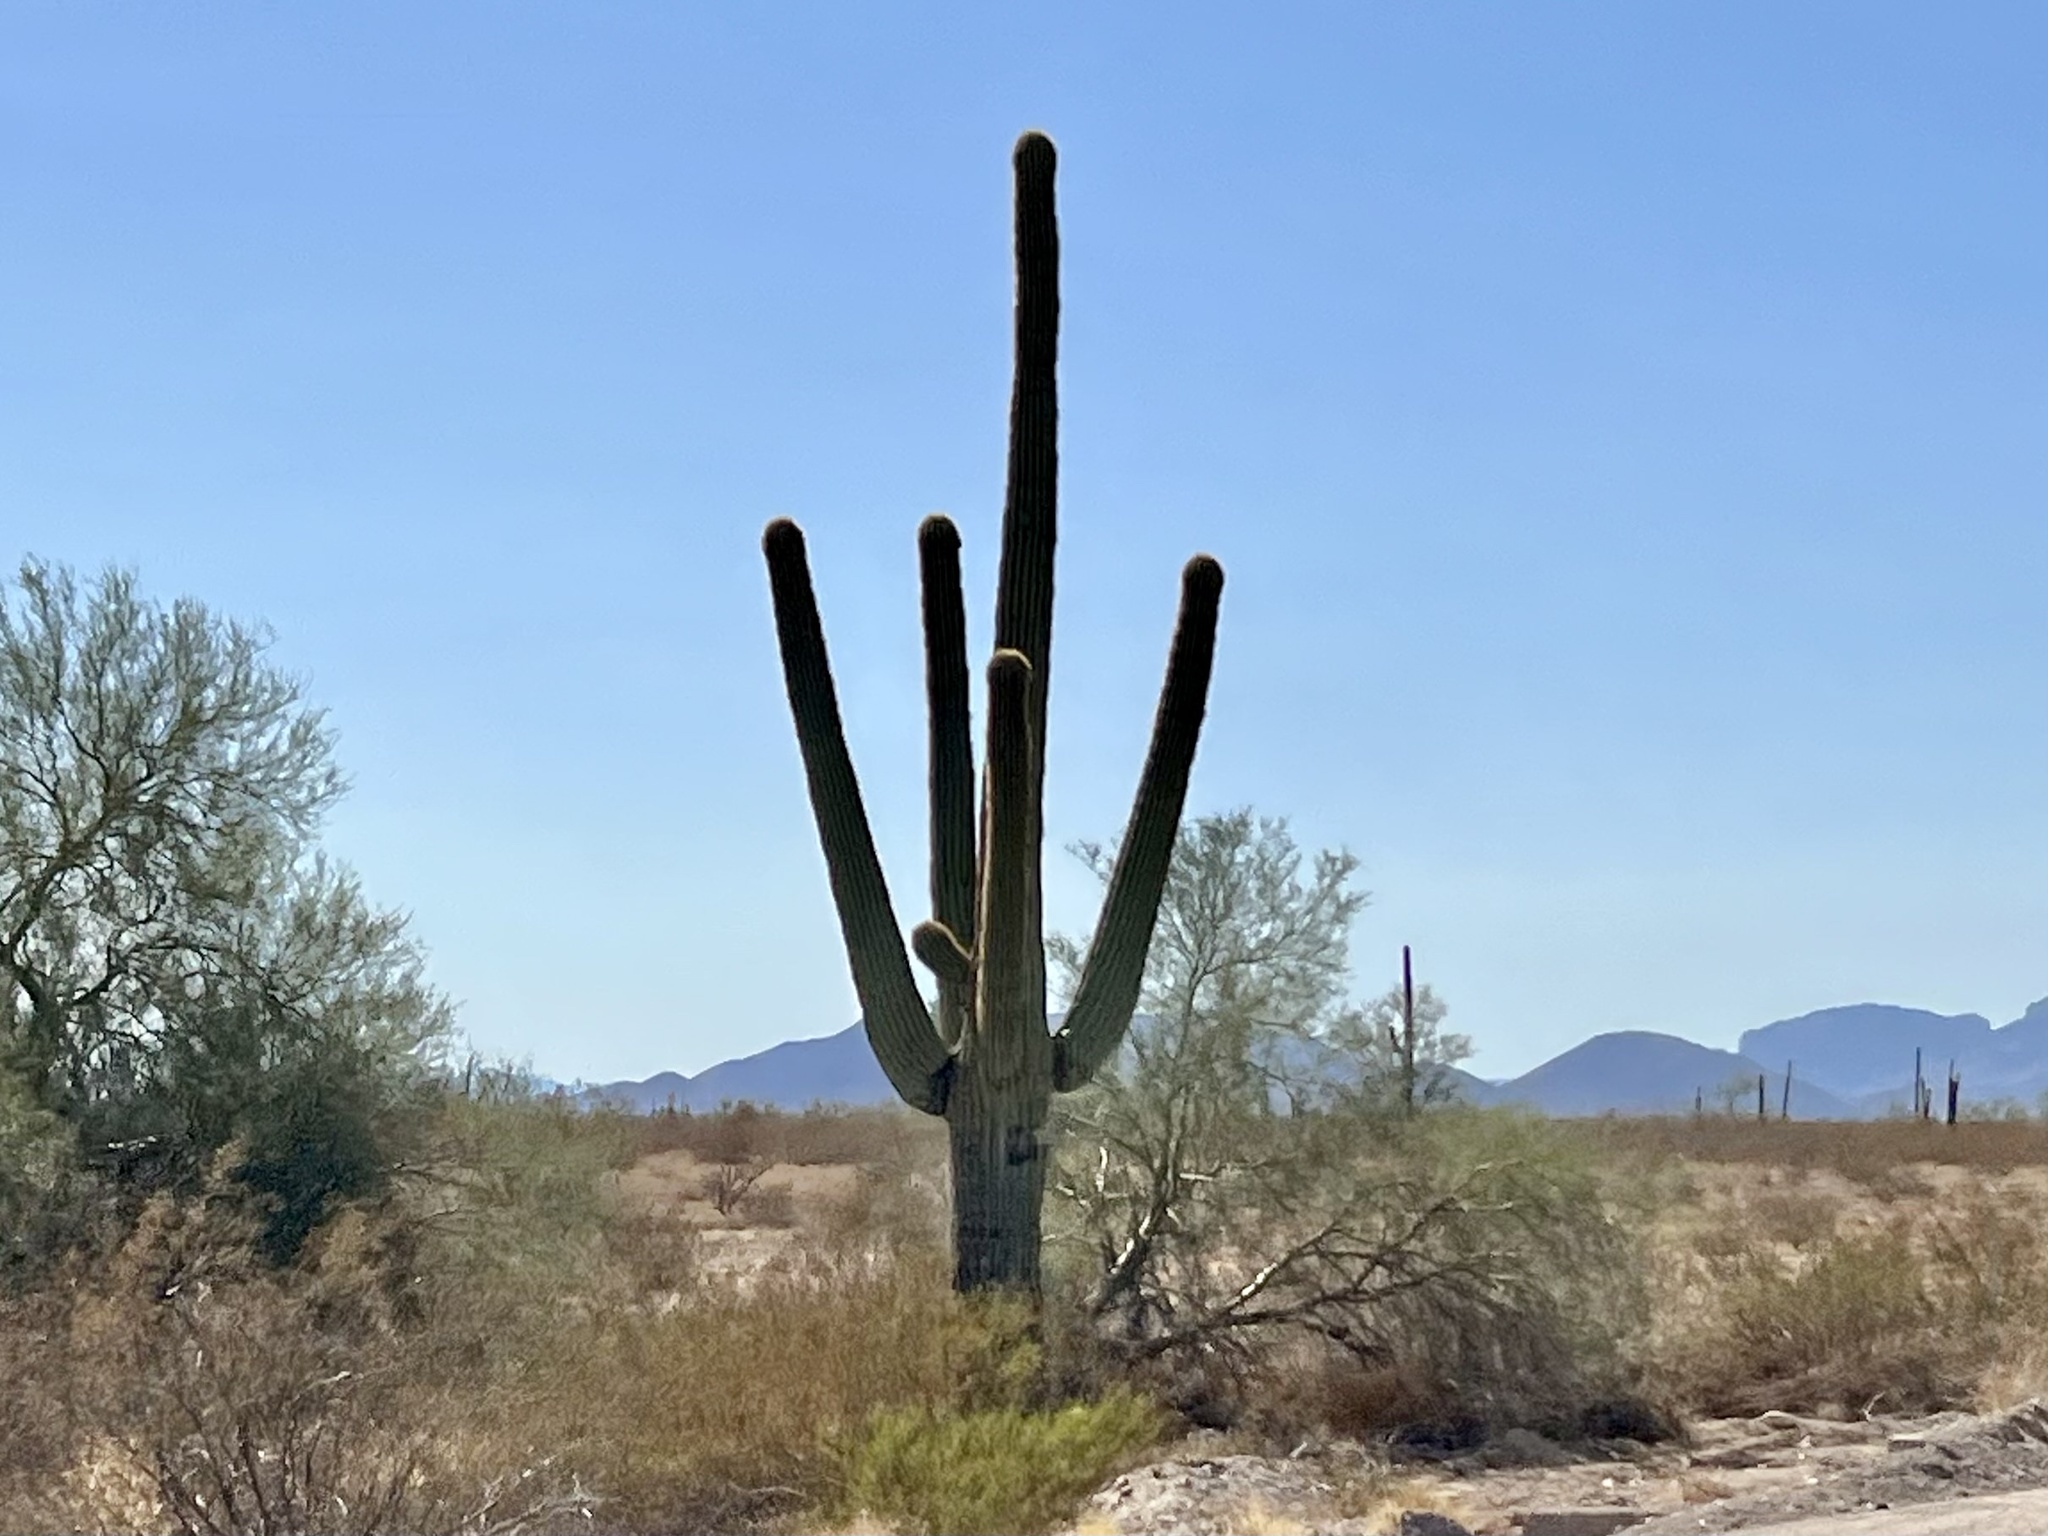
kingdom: Plantae
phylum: Tracheophyta
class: Magnoliopsida
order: Caryophyllales
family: Cactaceae
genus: Carnegiea
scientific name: Carnegiea gigantea
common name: Saguaro
